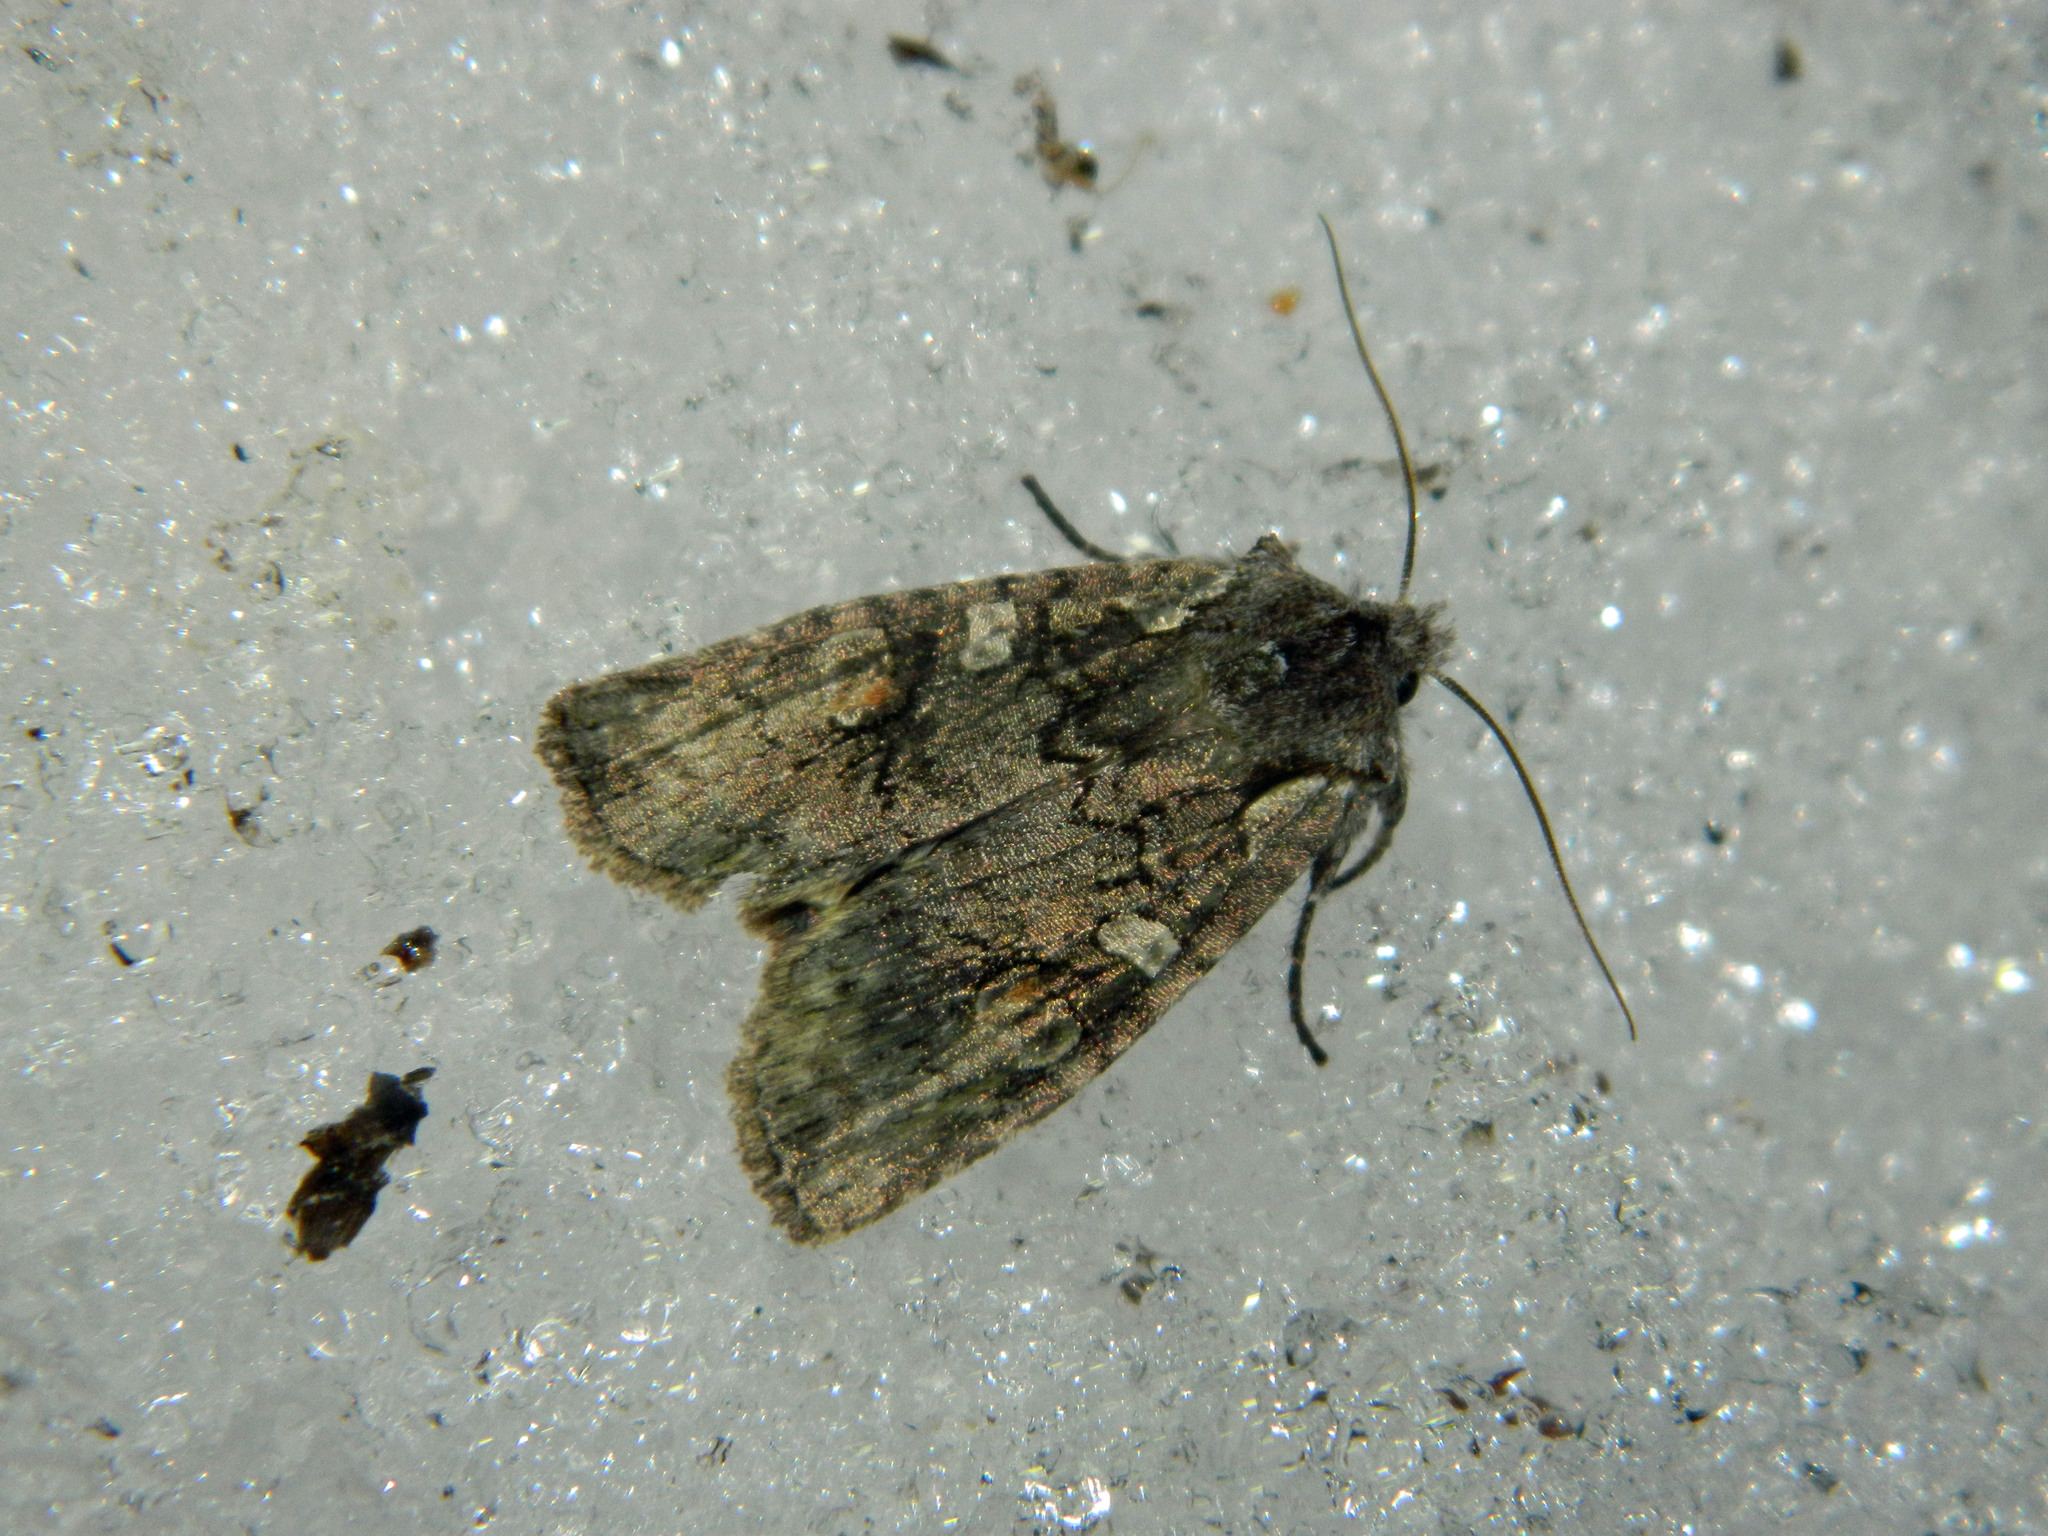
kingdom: Animalia
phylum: Arthropoda
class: Insecta
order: Lepidoptera
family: Noctuidae
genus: Lithophane
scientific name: Lithophane baileyi
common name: Bailey's pinion moth
